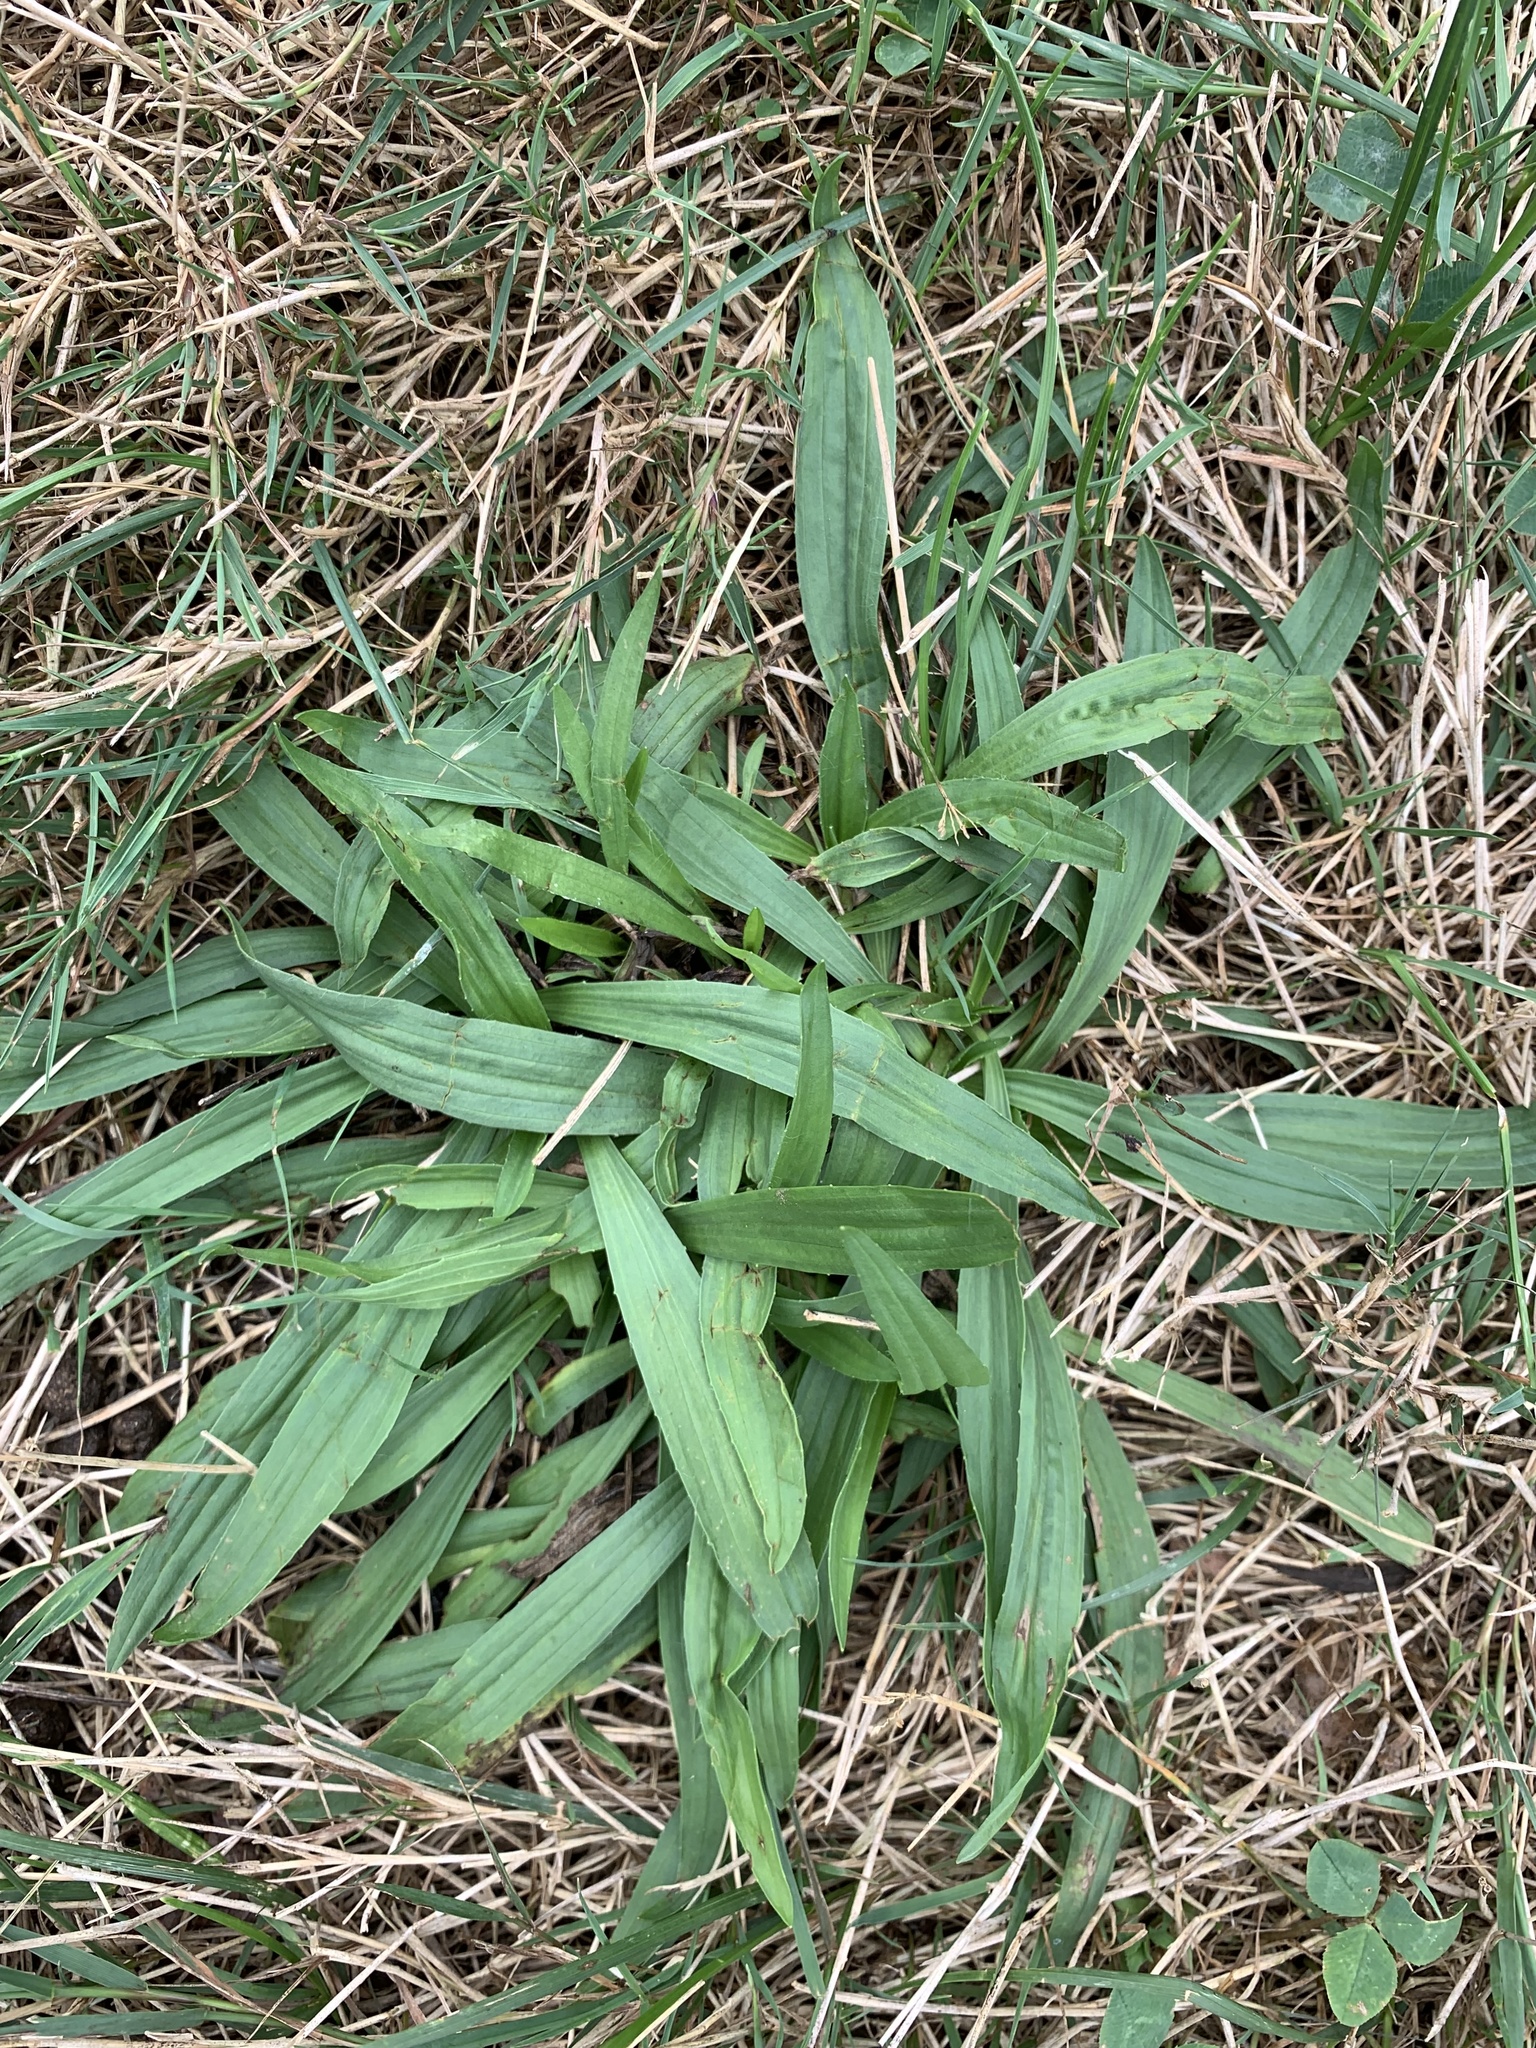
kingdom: Plantae
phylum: Tracheophyta
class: Magnoliopsida
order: Lamiales
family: Plantaginaceae
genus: Plantago
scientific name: Plantago lanceolata
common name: Ribwort plantain
